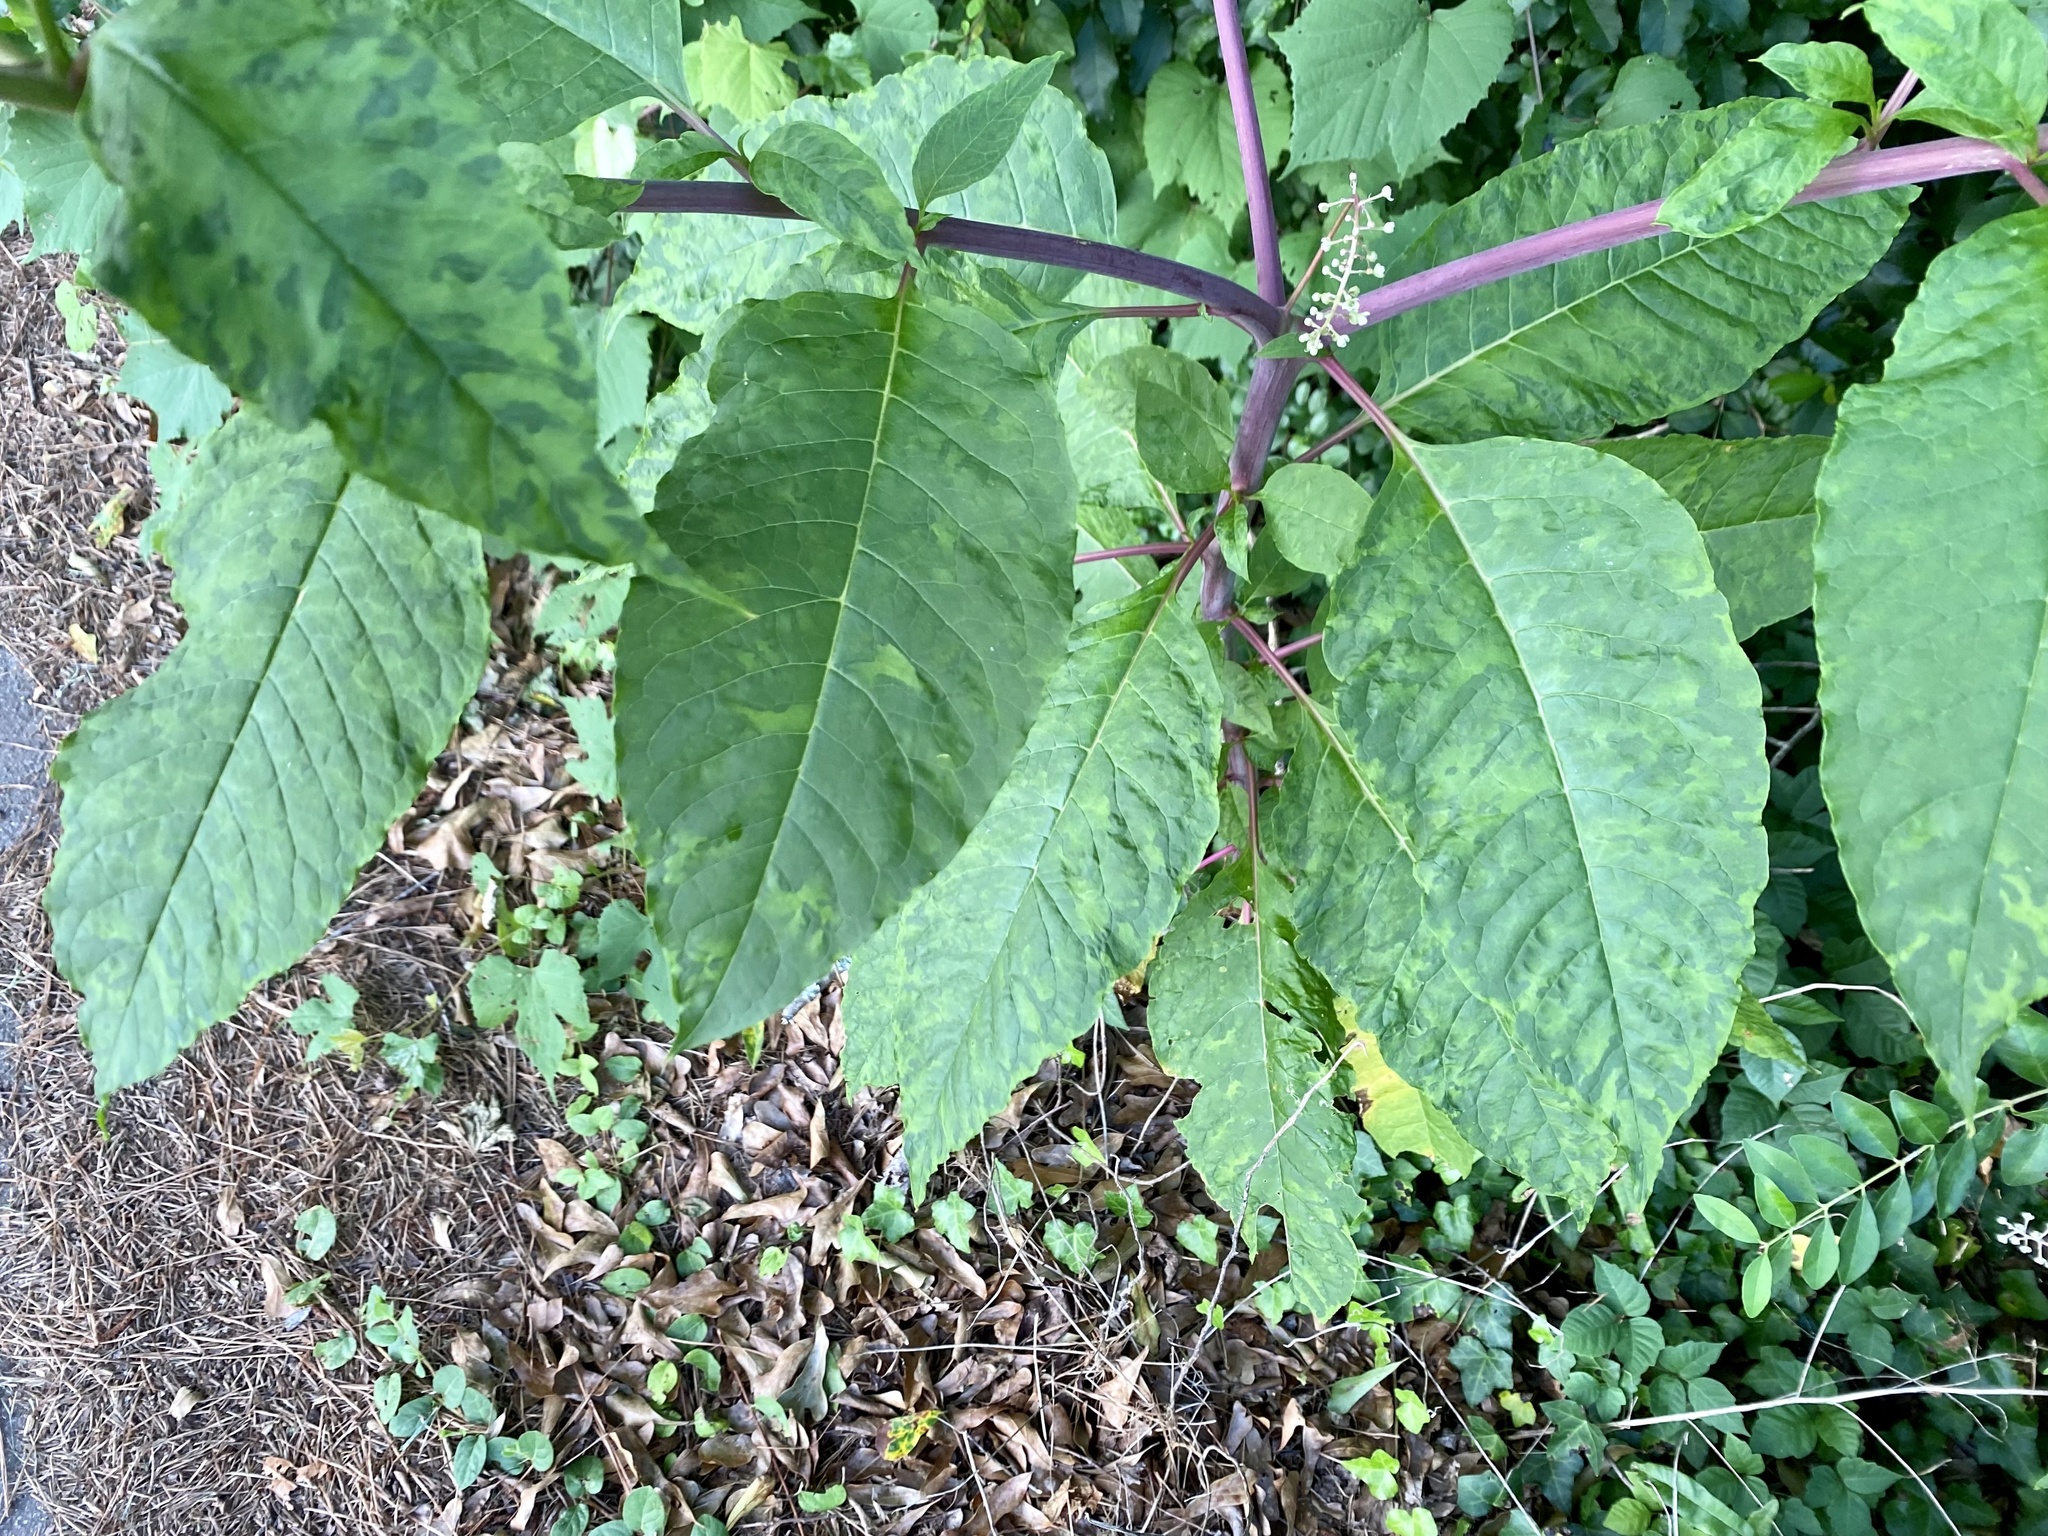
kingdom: Plantae
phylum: Tracheophyta
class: Magnoliopsida
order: Caryophyllales
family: Phytolaccaceae
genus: Phytolacca
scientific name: Phytolacca americana
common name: American pokeweed
